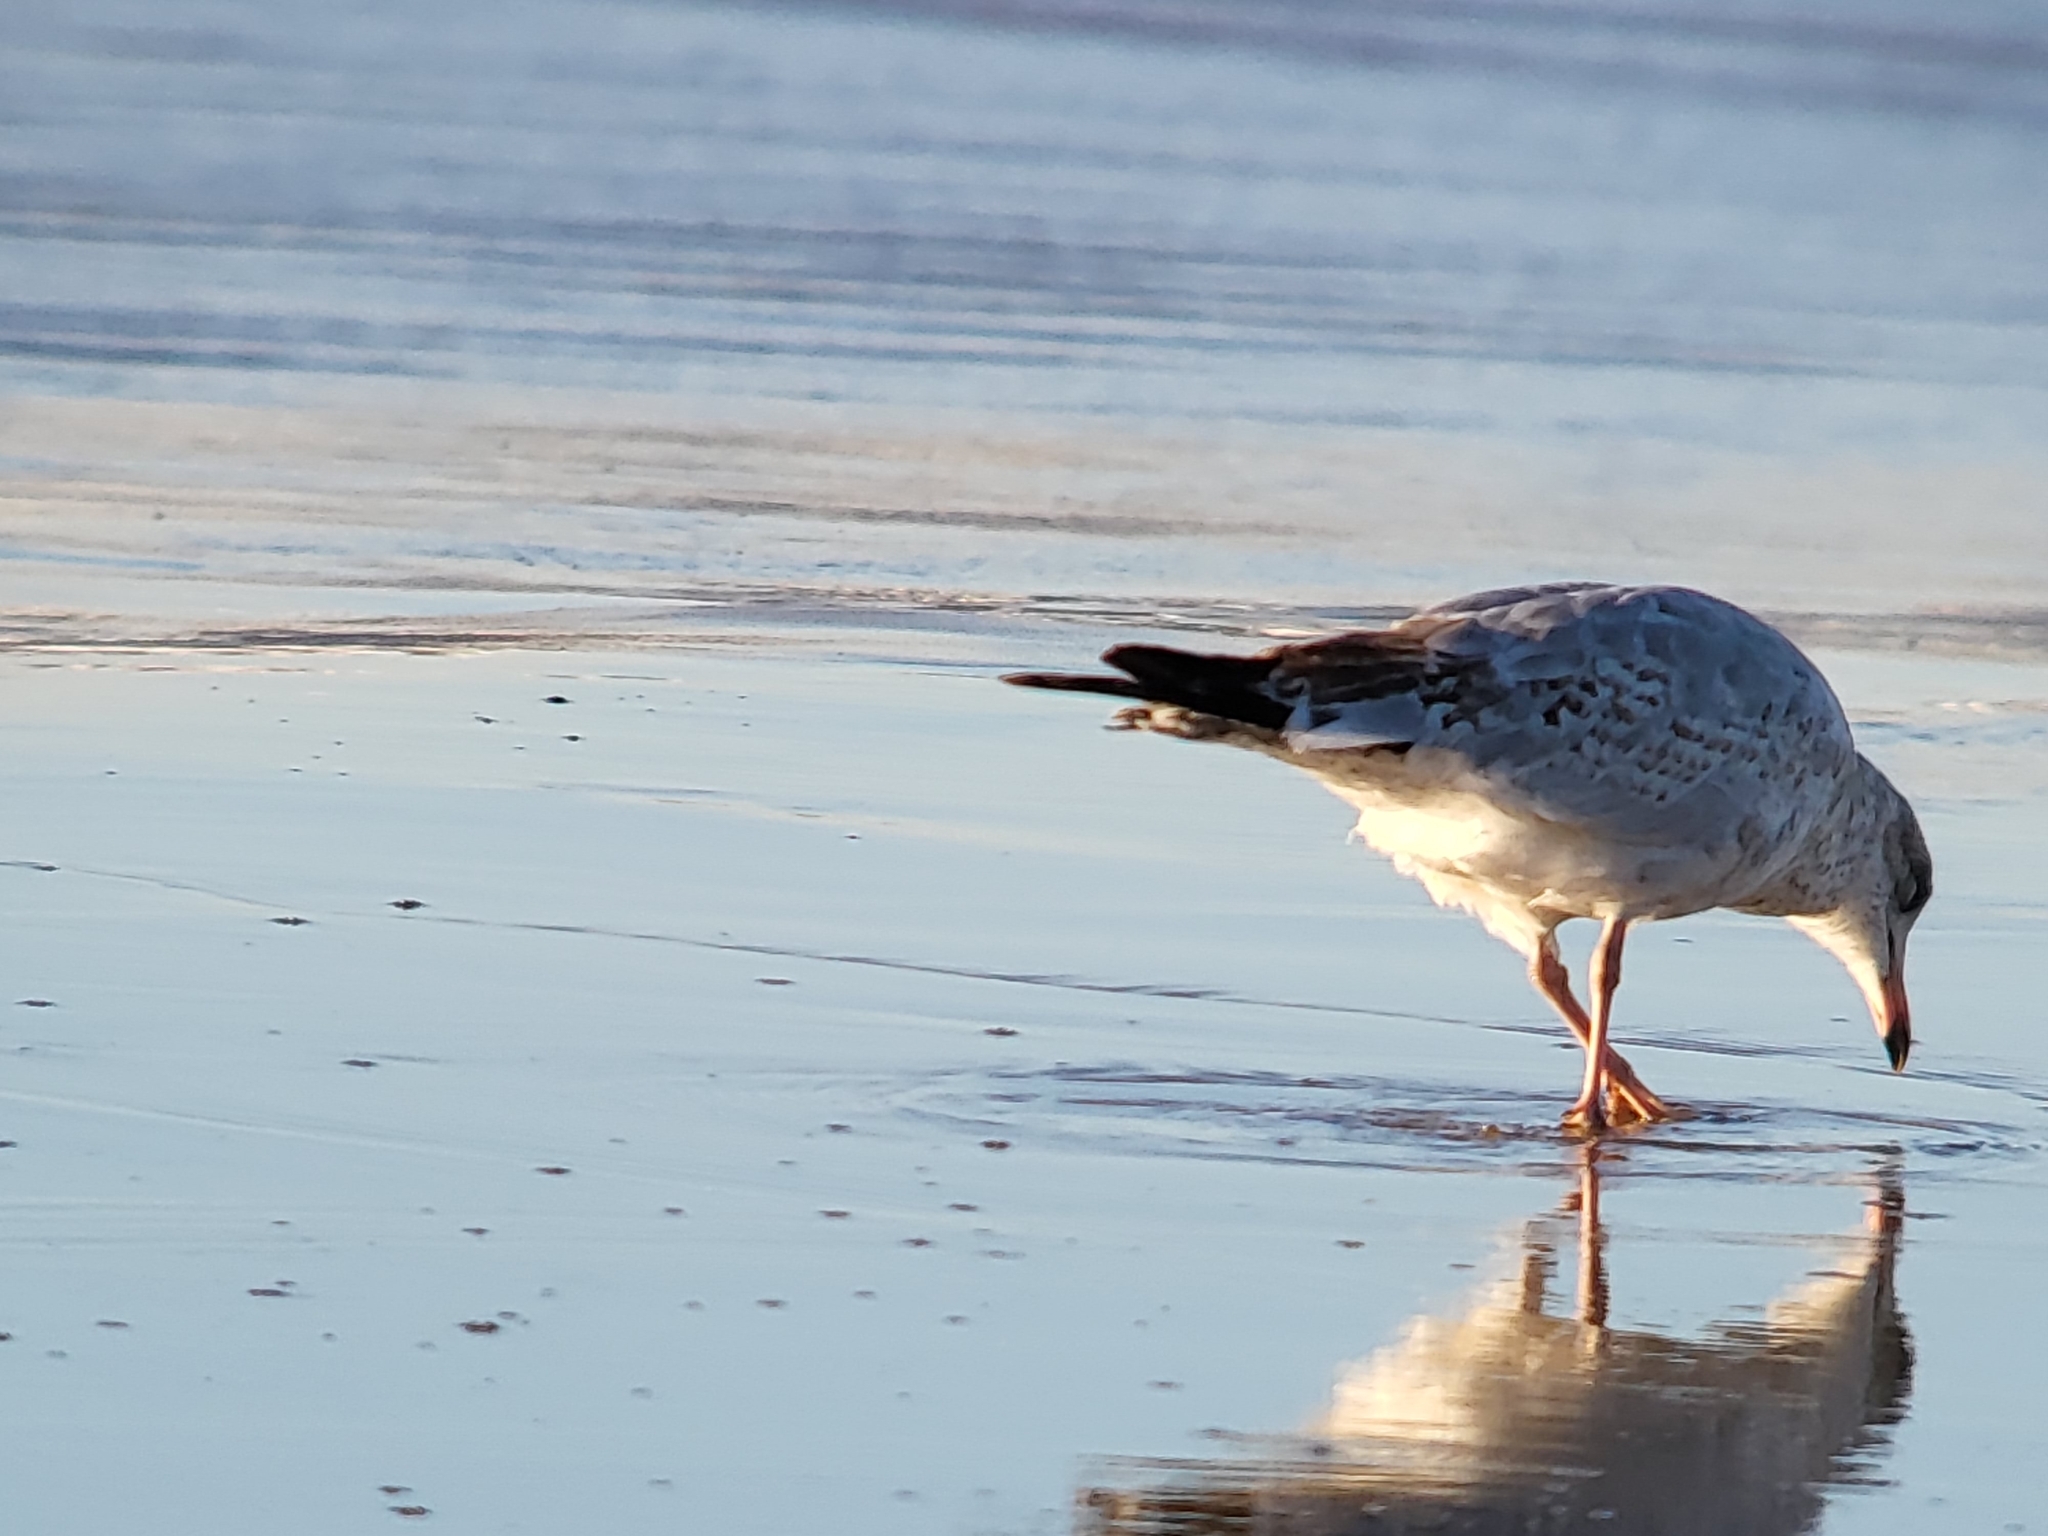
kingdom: Animalia
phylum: Chordata
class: Aves
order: Charadriiformes
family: Laridae
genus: Larus
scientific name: Larus delawarensis
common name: Ring-billed gull
